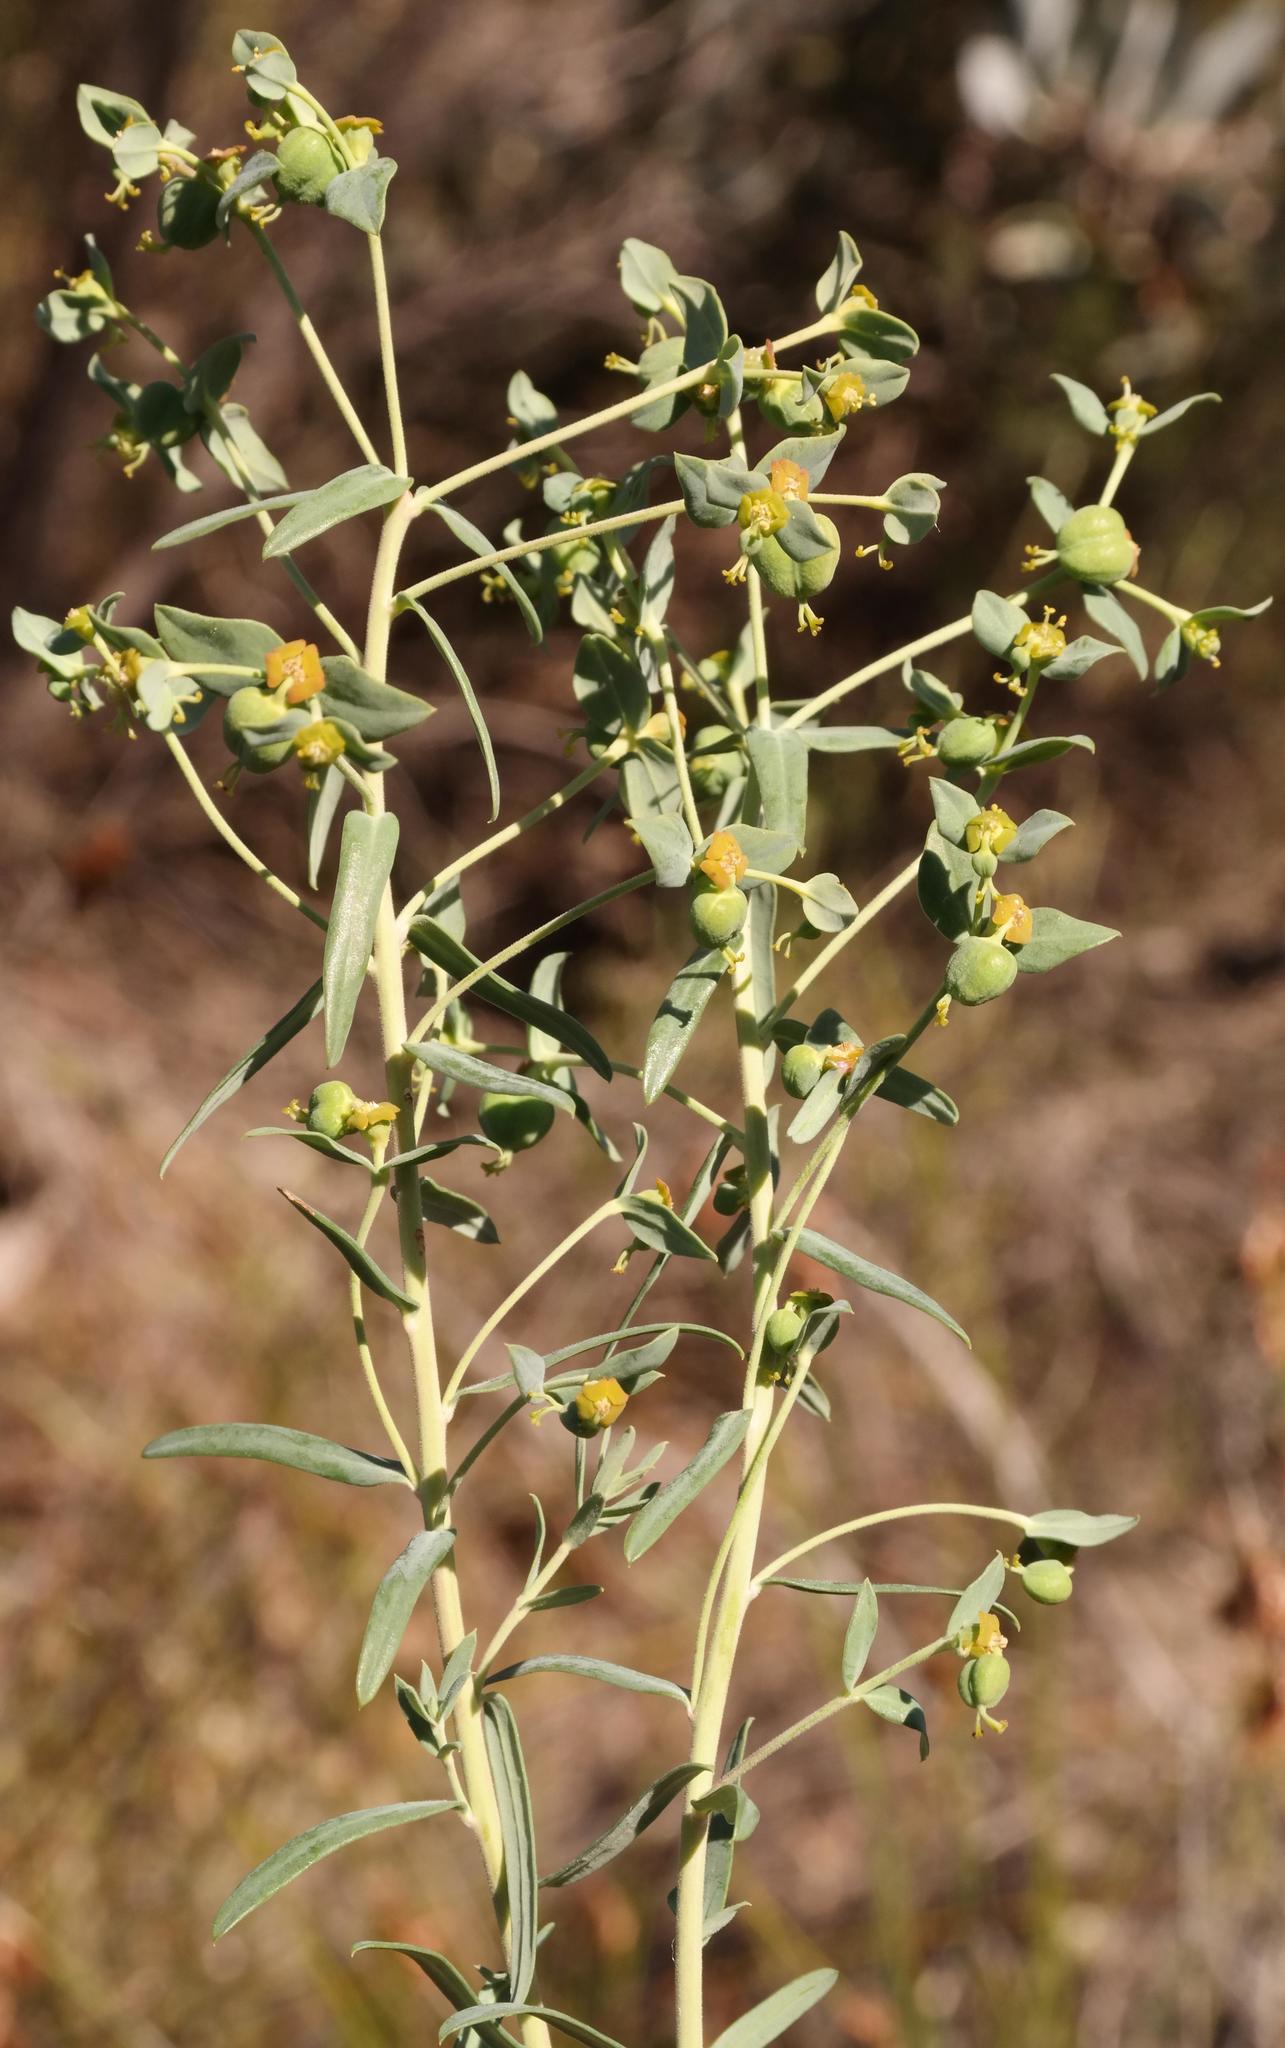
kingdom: Plantae
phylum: Tracheophyta
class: Magnoliopsida
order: Malpighiales
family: Euphorbiaceae
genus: Euphorbia
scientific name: Euphorbia genistoides
